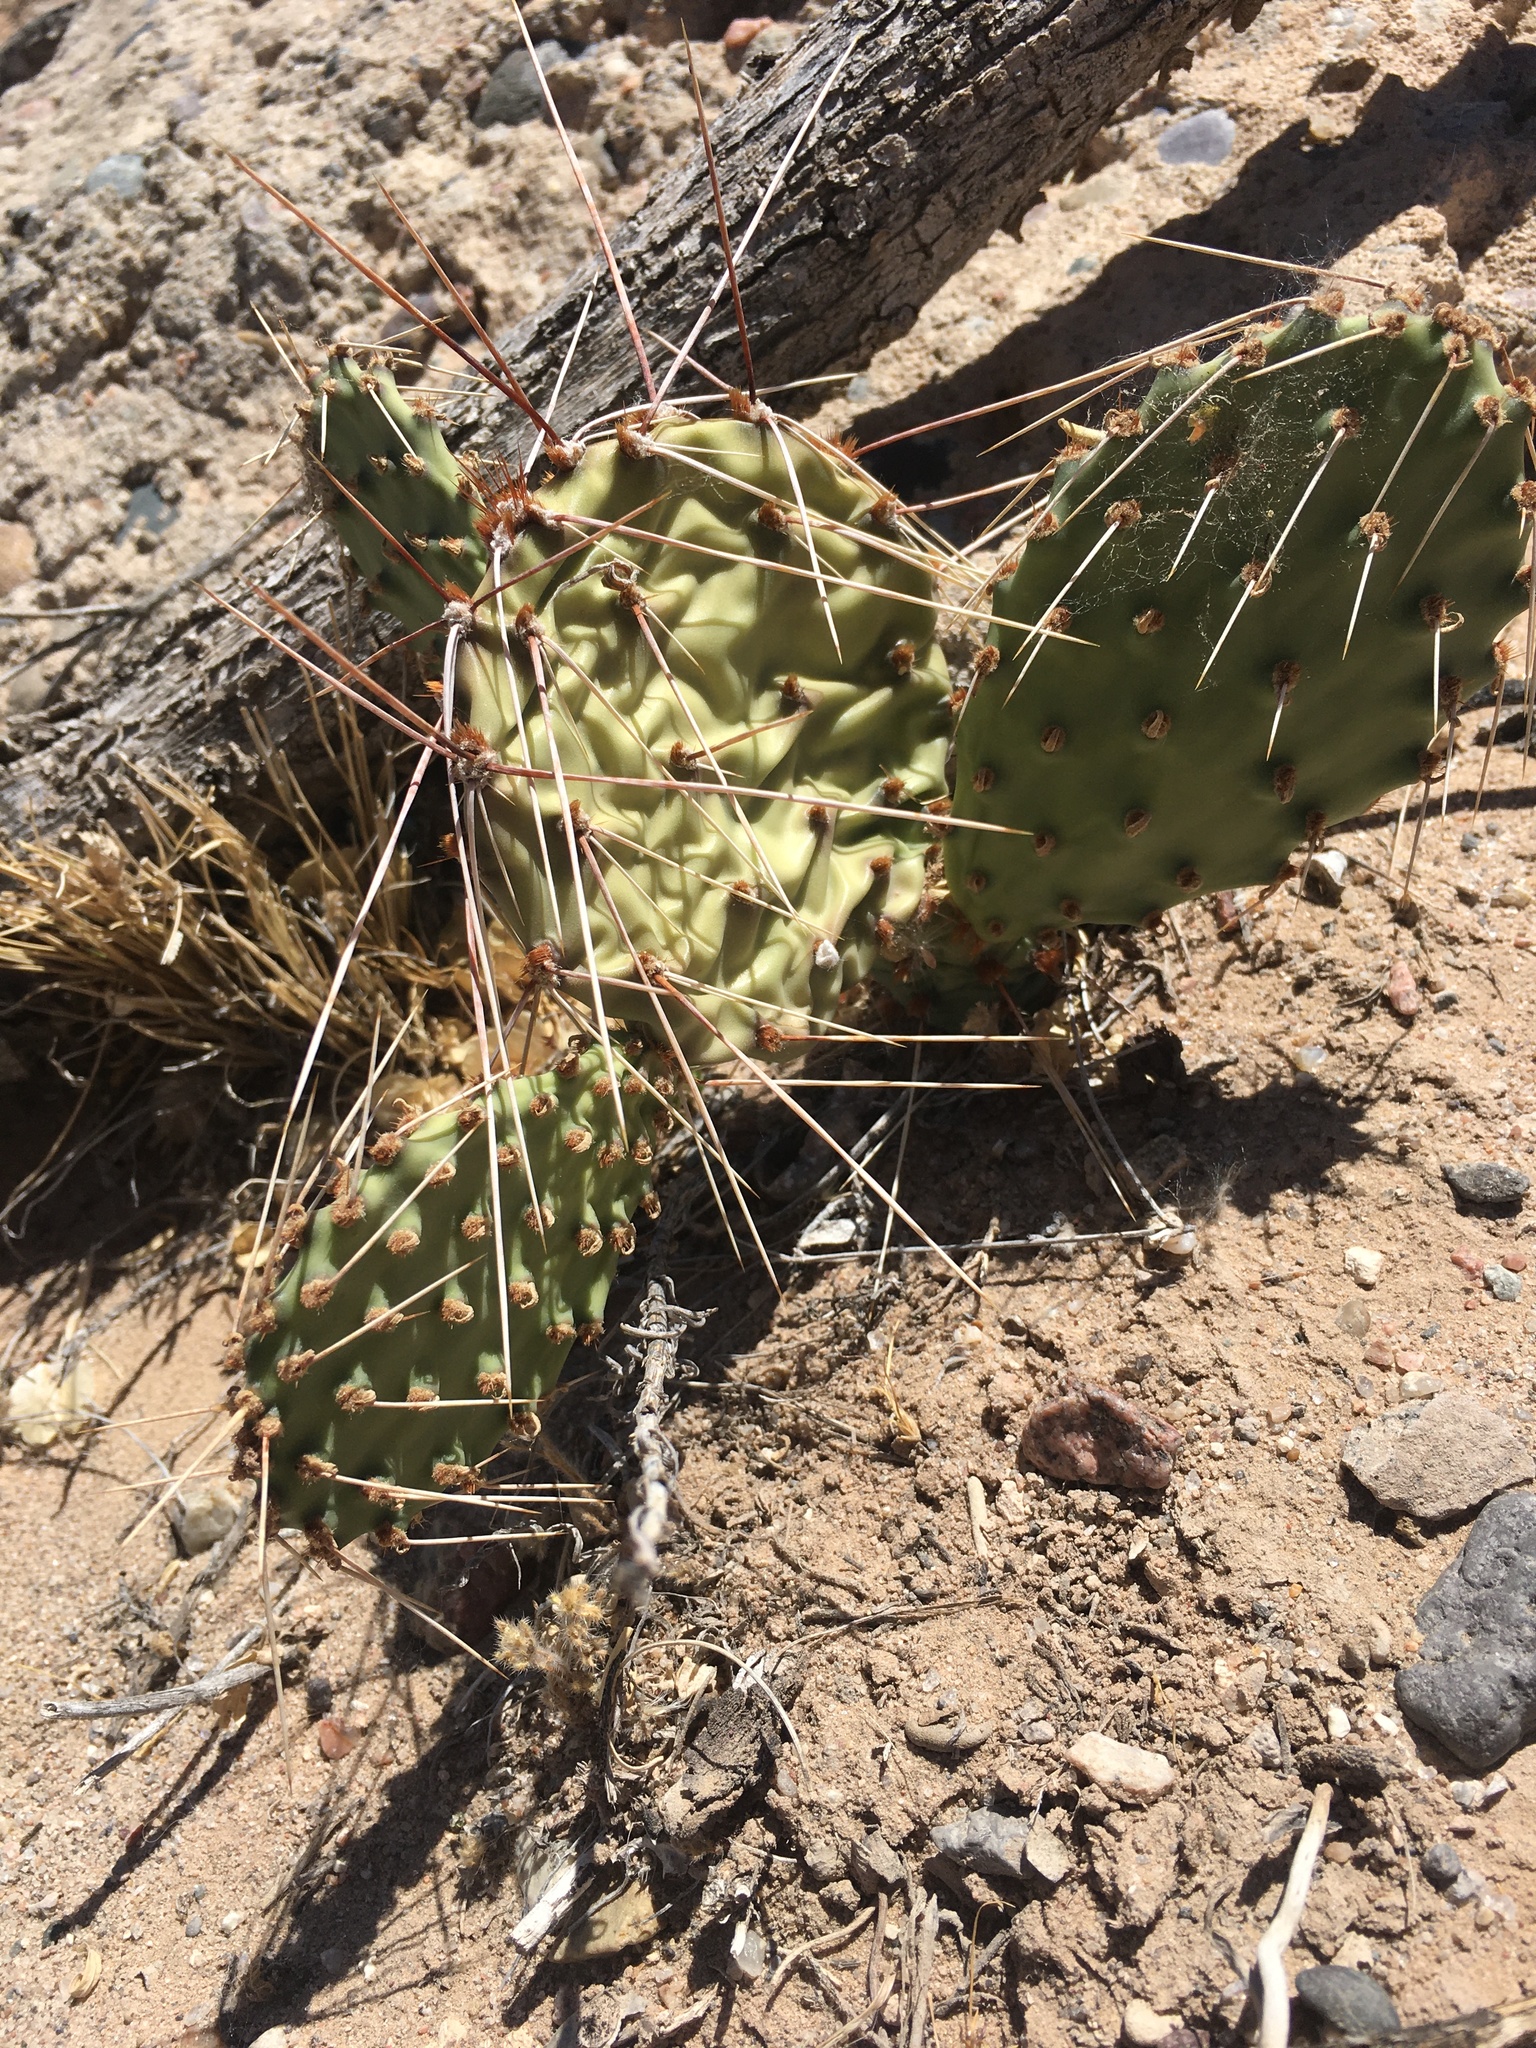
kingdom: Plantae
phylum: Tracheophyta
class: Magnoliopsida
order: Caryophyllales
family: Cactaceae
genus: Opuntia
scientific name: Opuntia macrorhiza
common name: Grassland pricklypear
